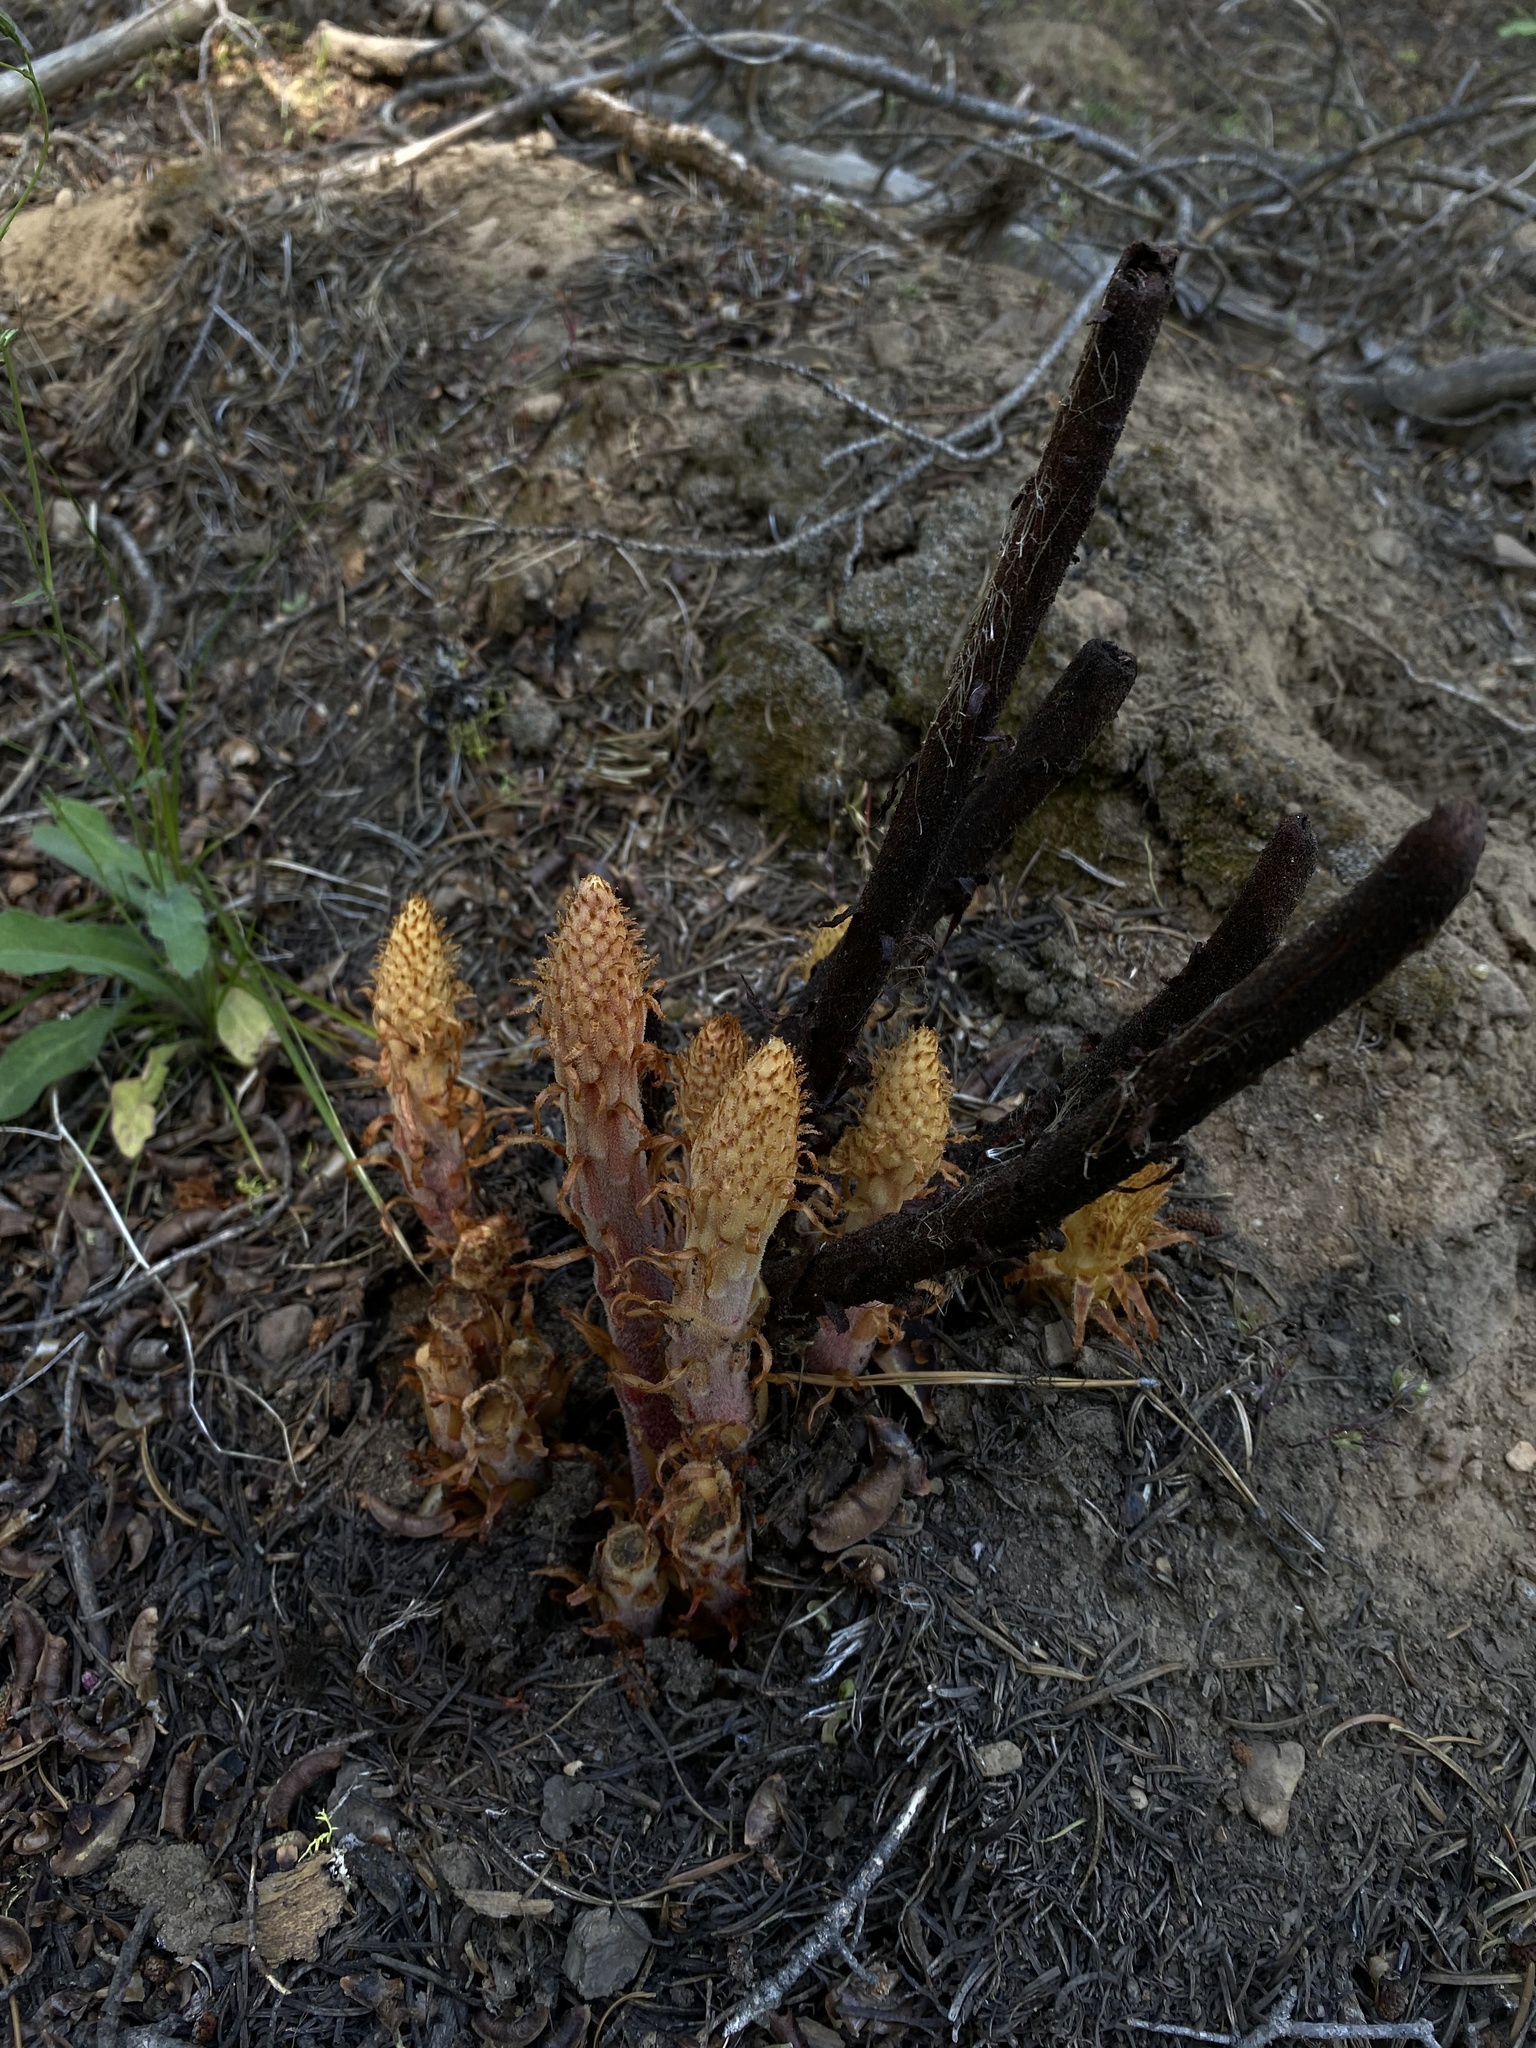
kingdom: Plantae
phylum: Tracheophyta
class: Magnoliopsida
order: Ericales
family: Ericaceae
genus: Pterospora
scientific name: Pterospora andromedea
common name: Giant bird's-nest
